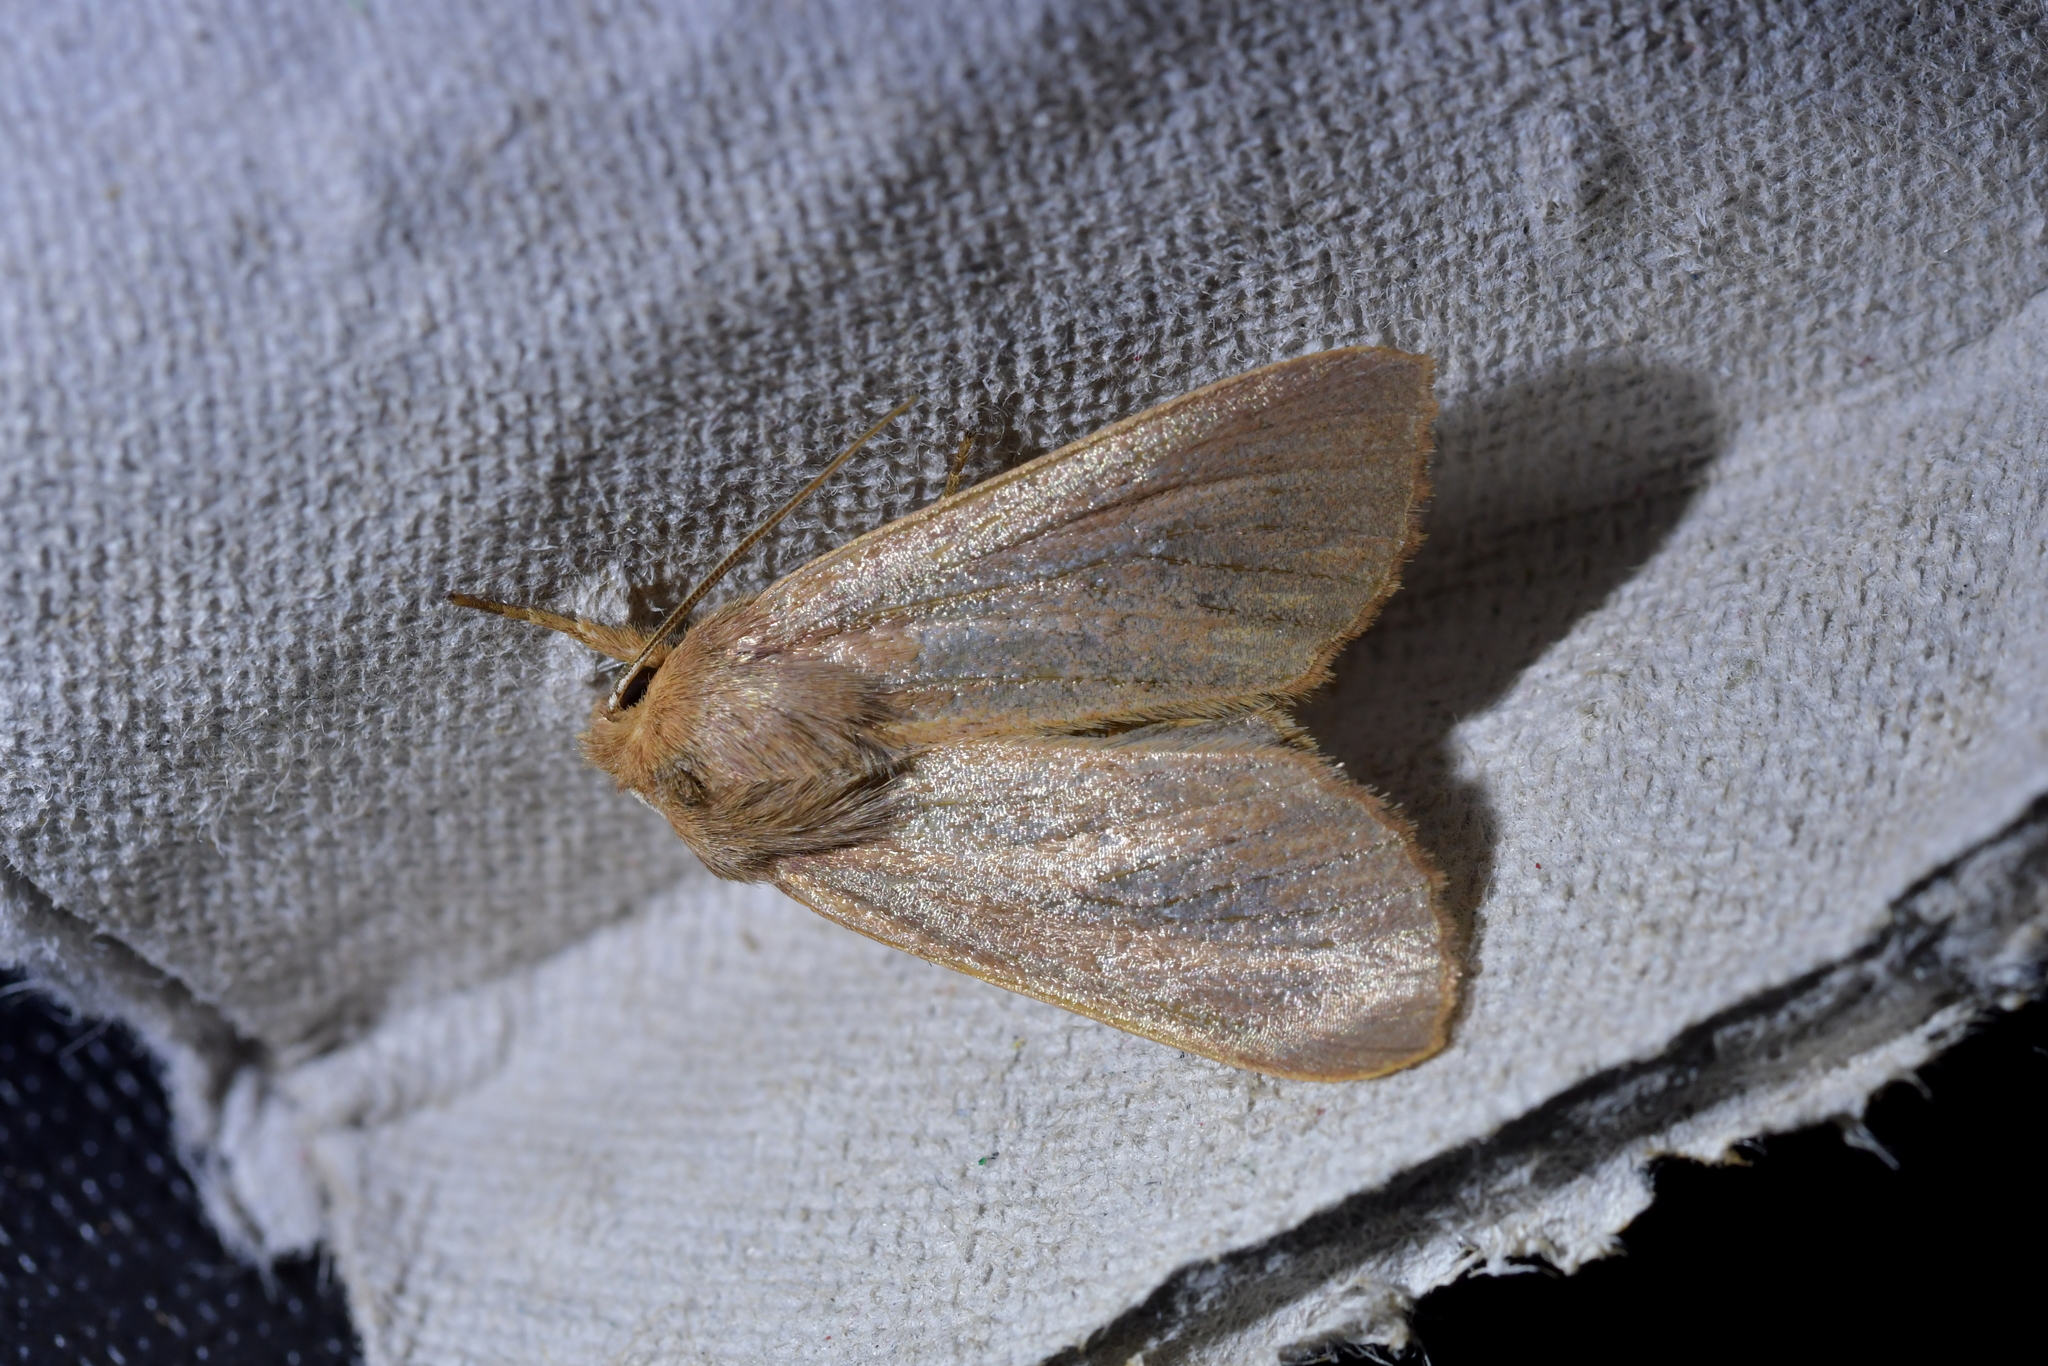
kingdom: Animalia
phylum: Arthropoda
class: Insecta
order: Lepidoptera
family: Noctuidae
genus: Ichneutica
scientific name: Ichneutica arotis
